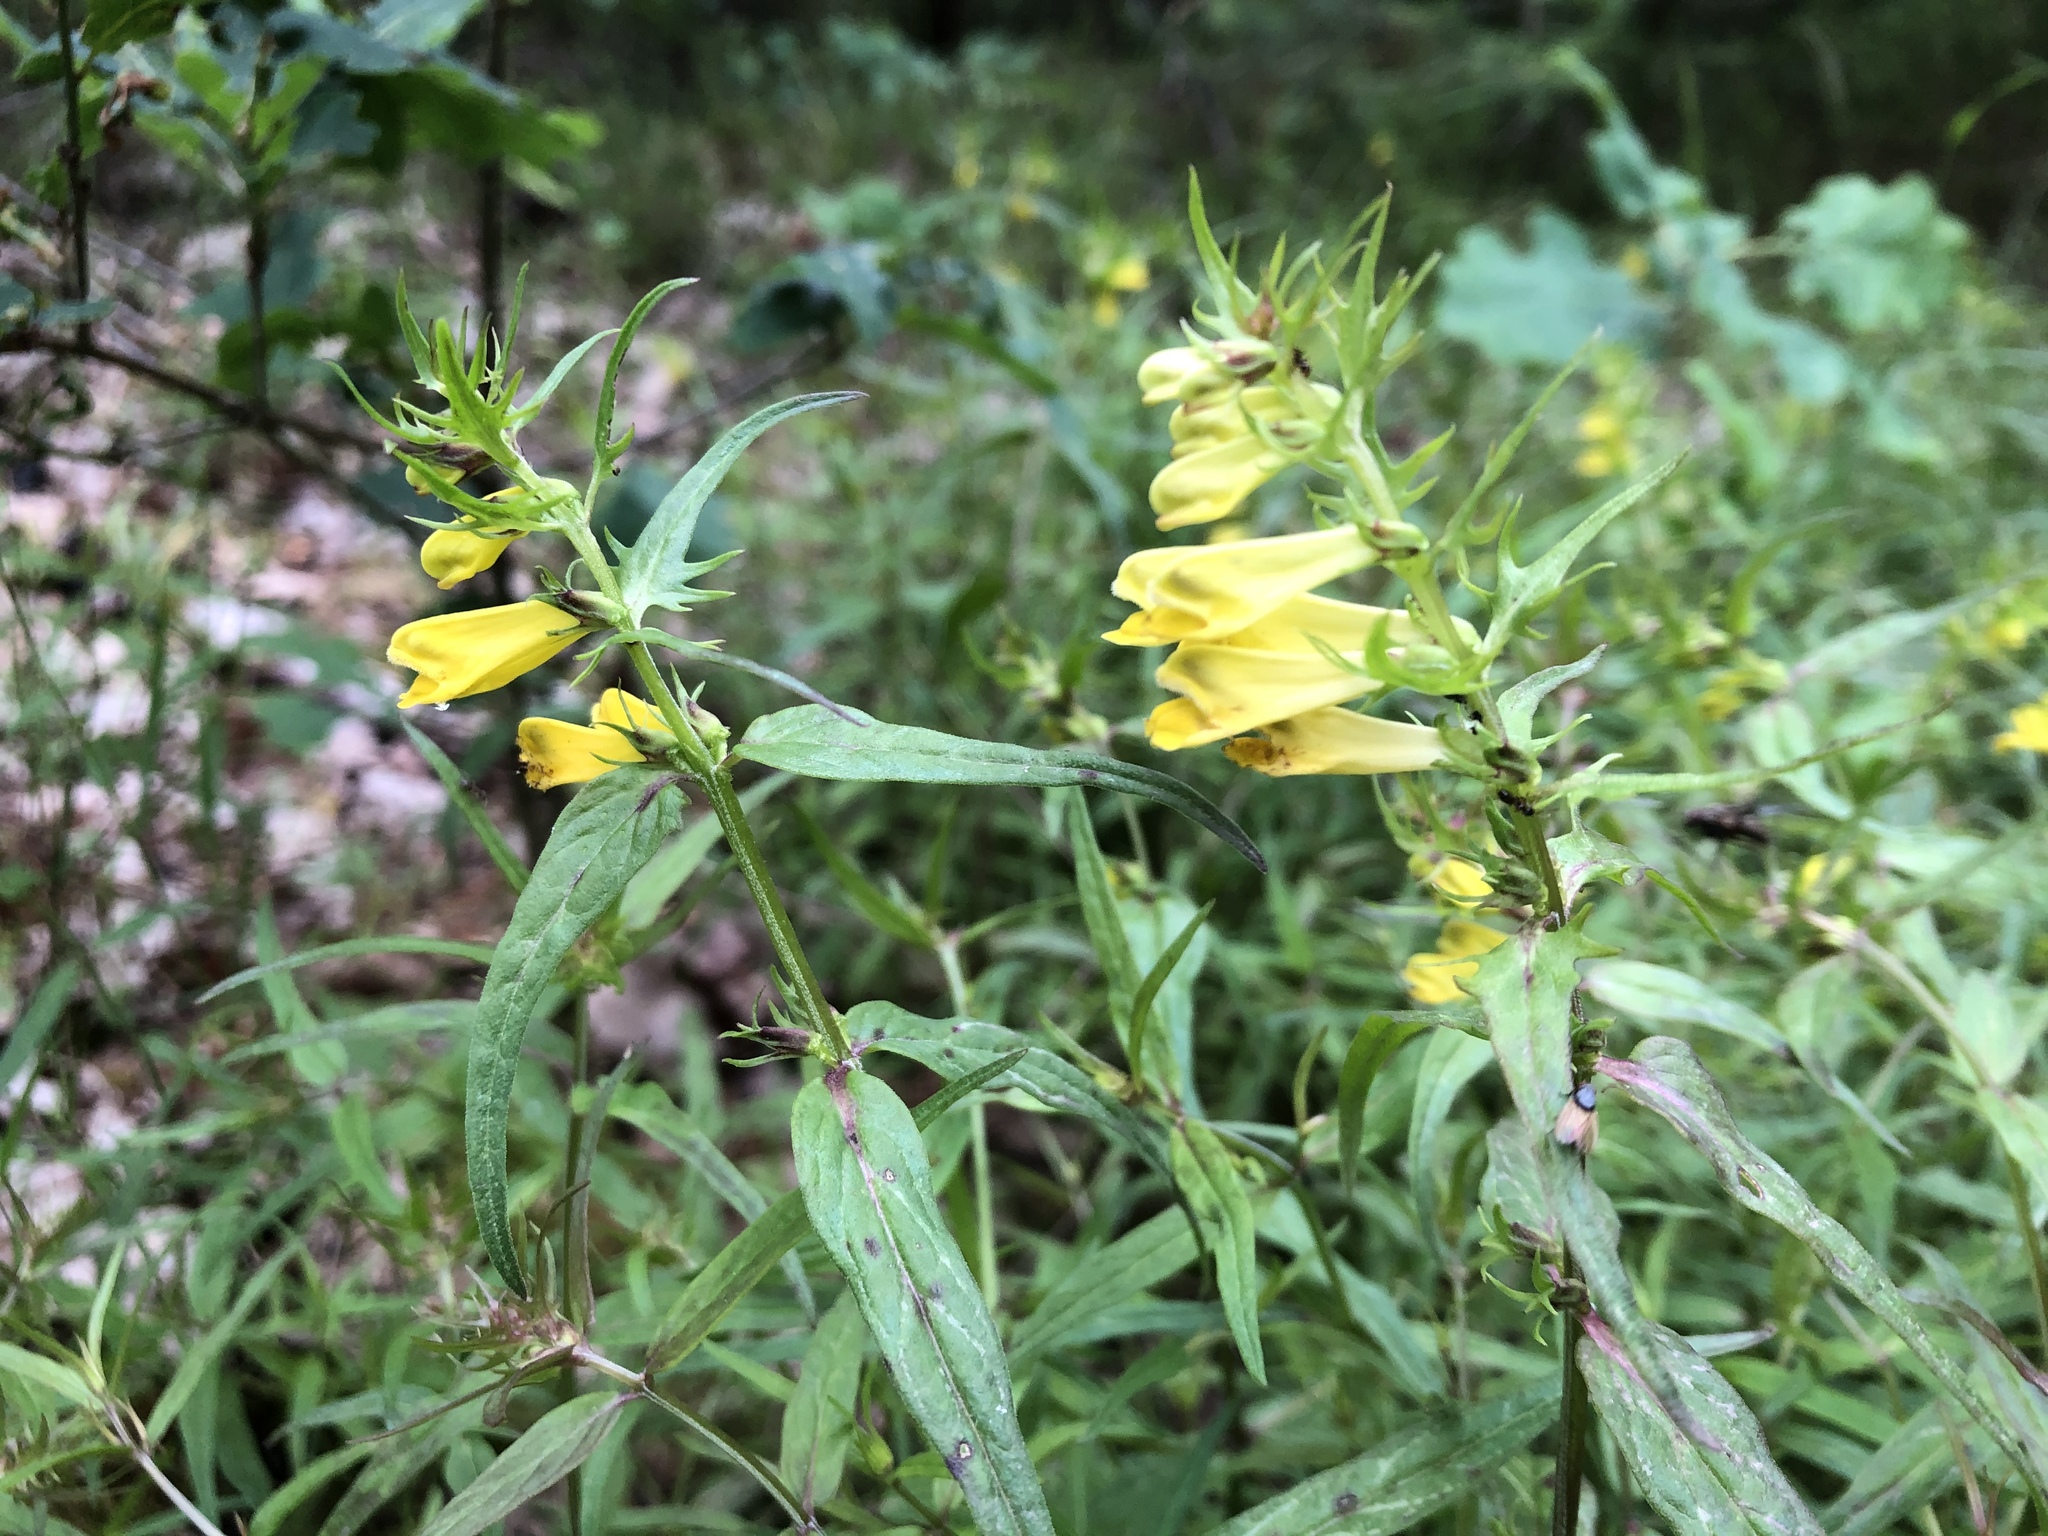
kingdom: Plantae
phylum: Tracheophyta
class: Magnoliopsida
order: Lamiales
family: Orobanchaceae
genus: Melampyrum
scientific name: Melampyrum pratense
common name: Common cow-wheat
